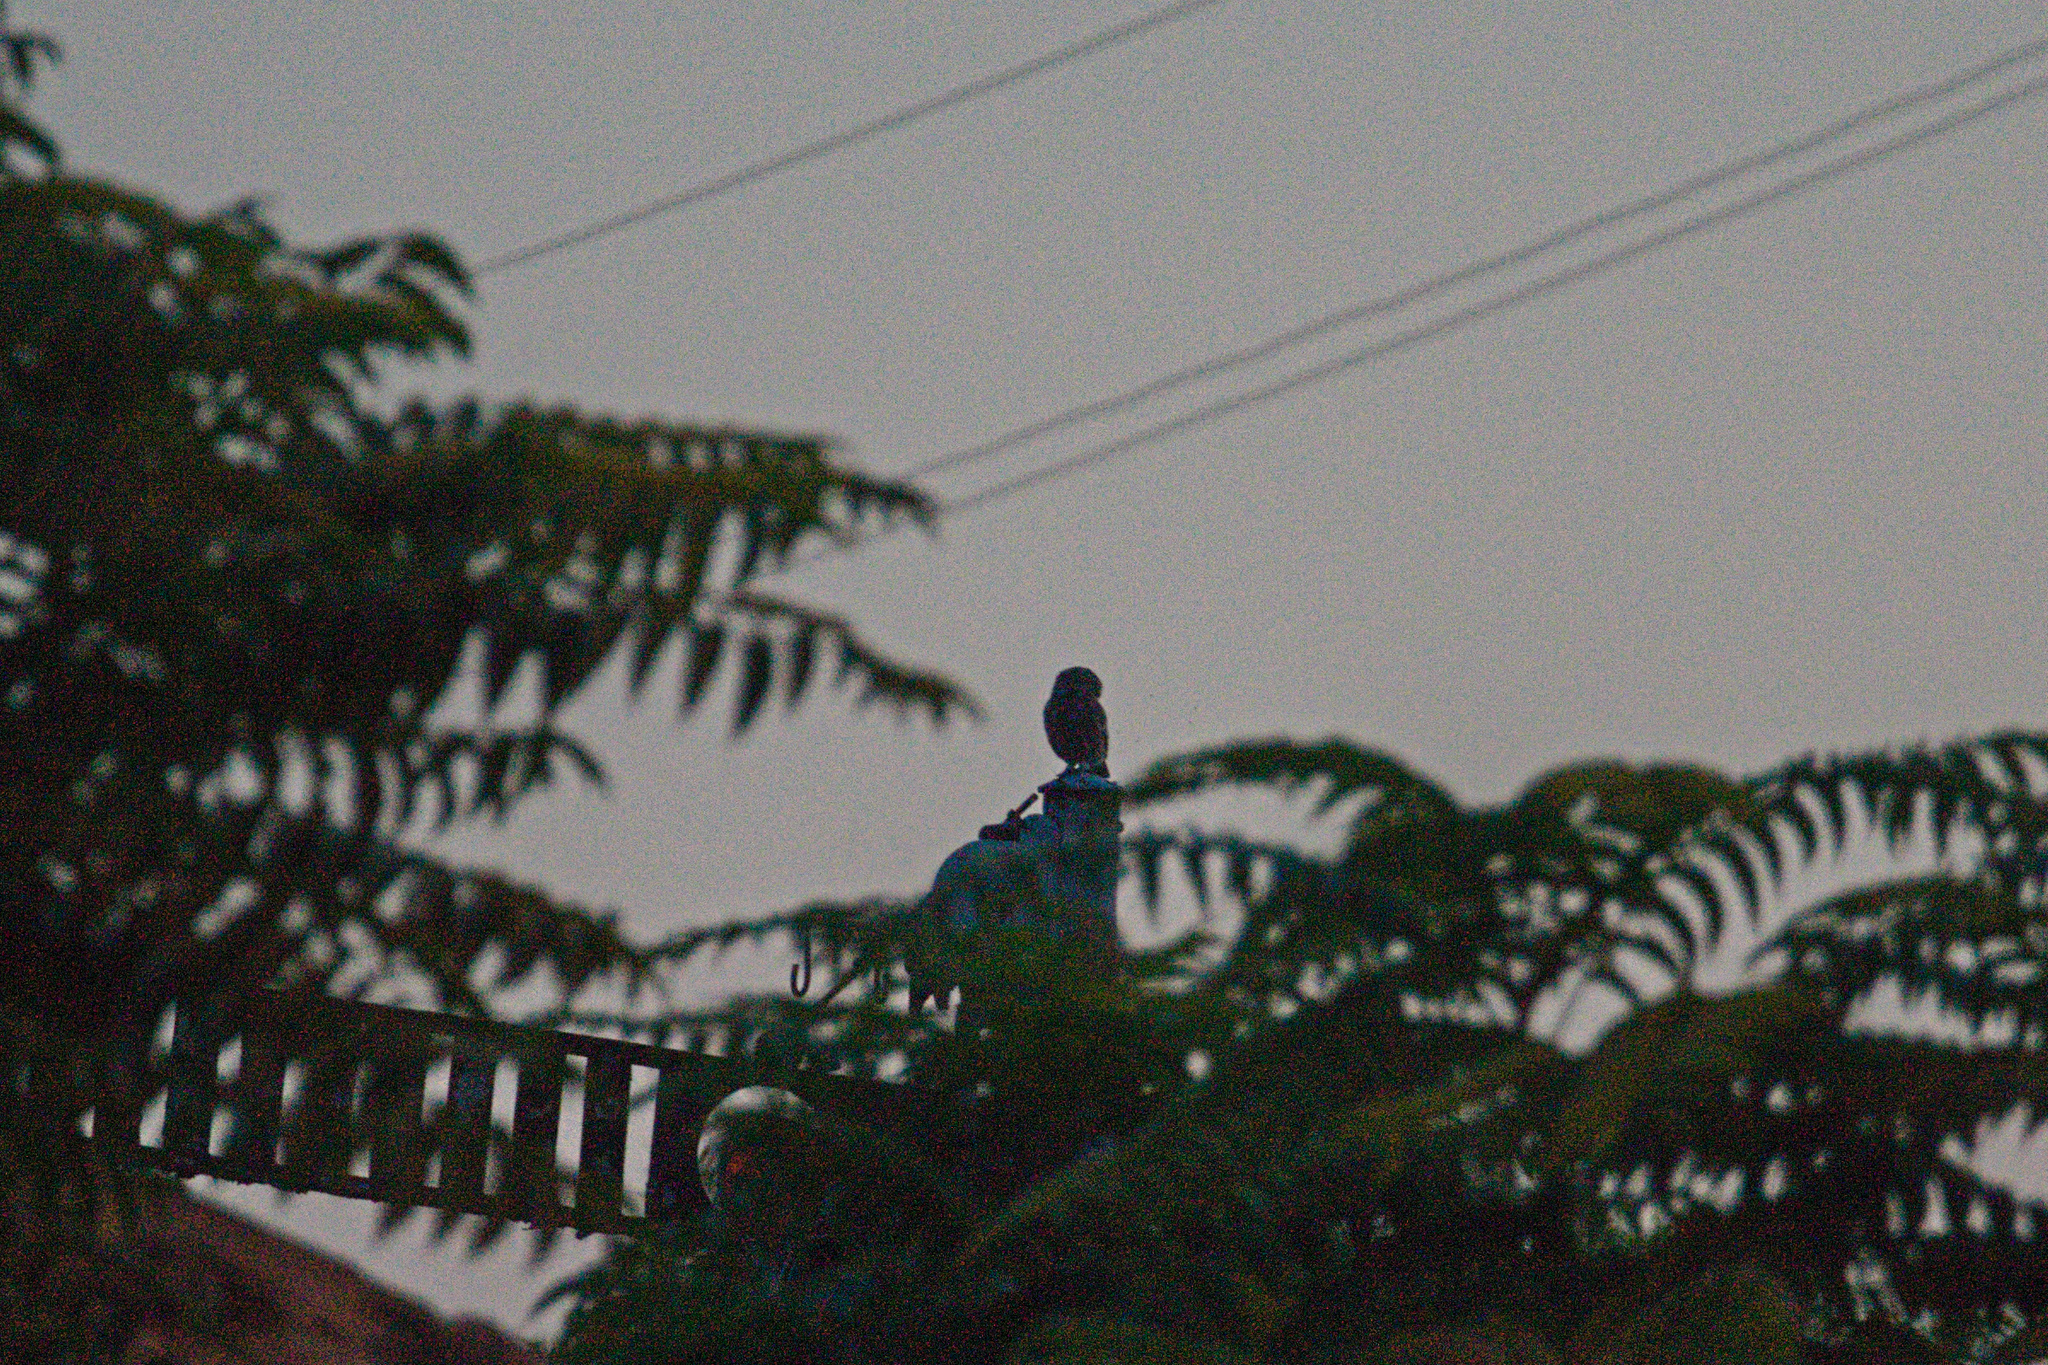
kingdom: Animalia
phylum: Chordata
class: Aves
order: Strigiformes
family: Strigidae
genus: Athene
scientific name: Athene noctua
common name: Little owl
